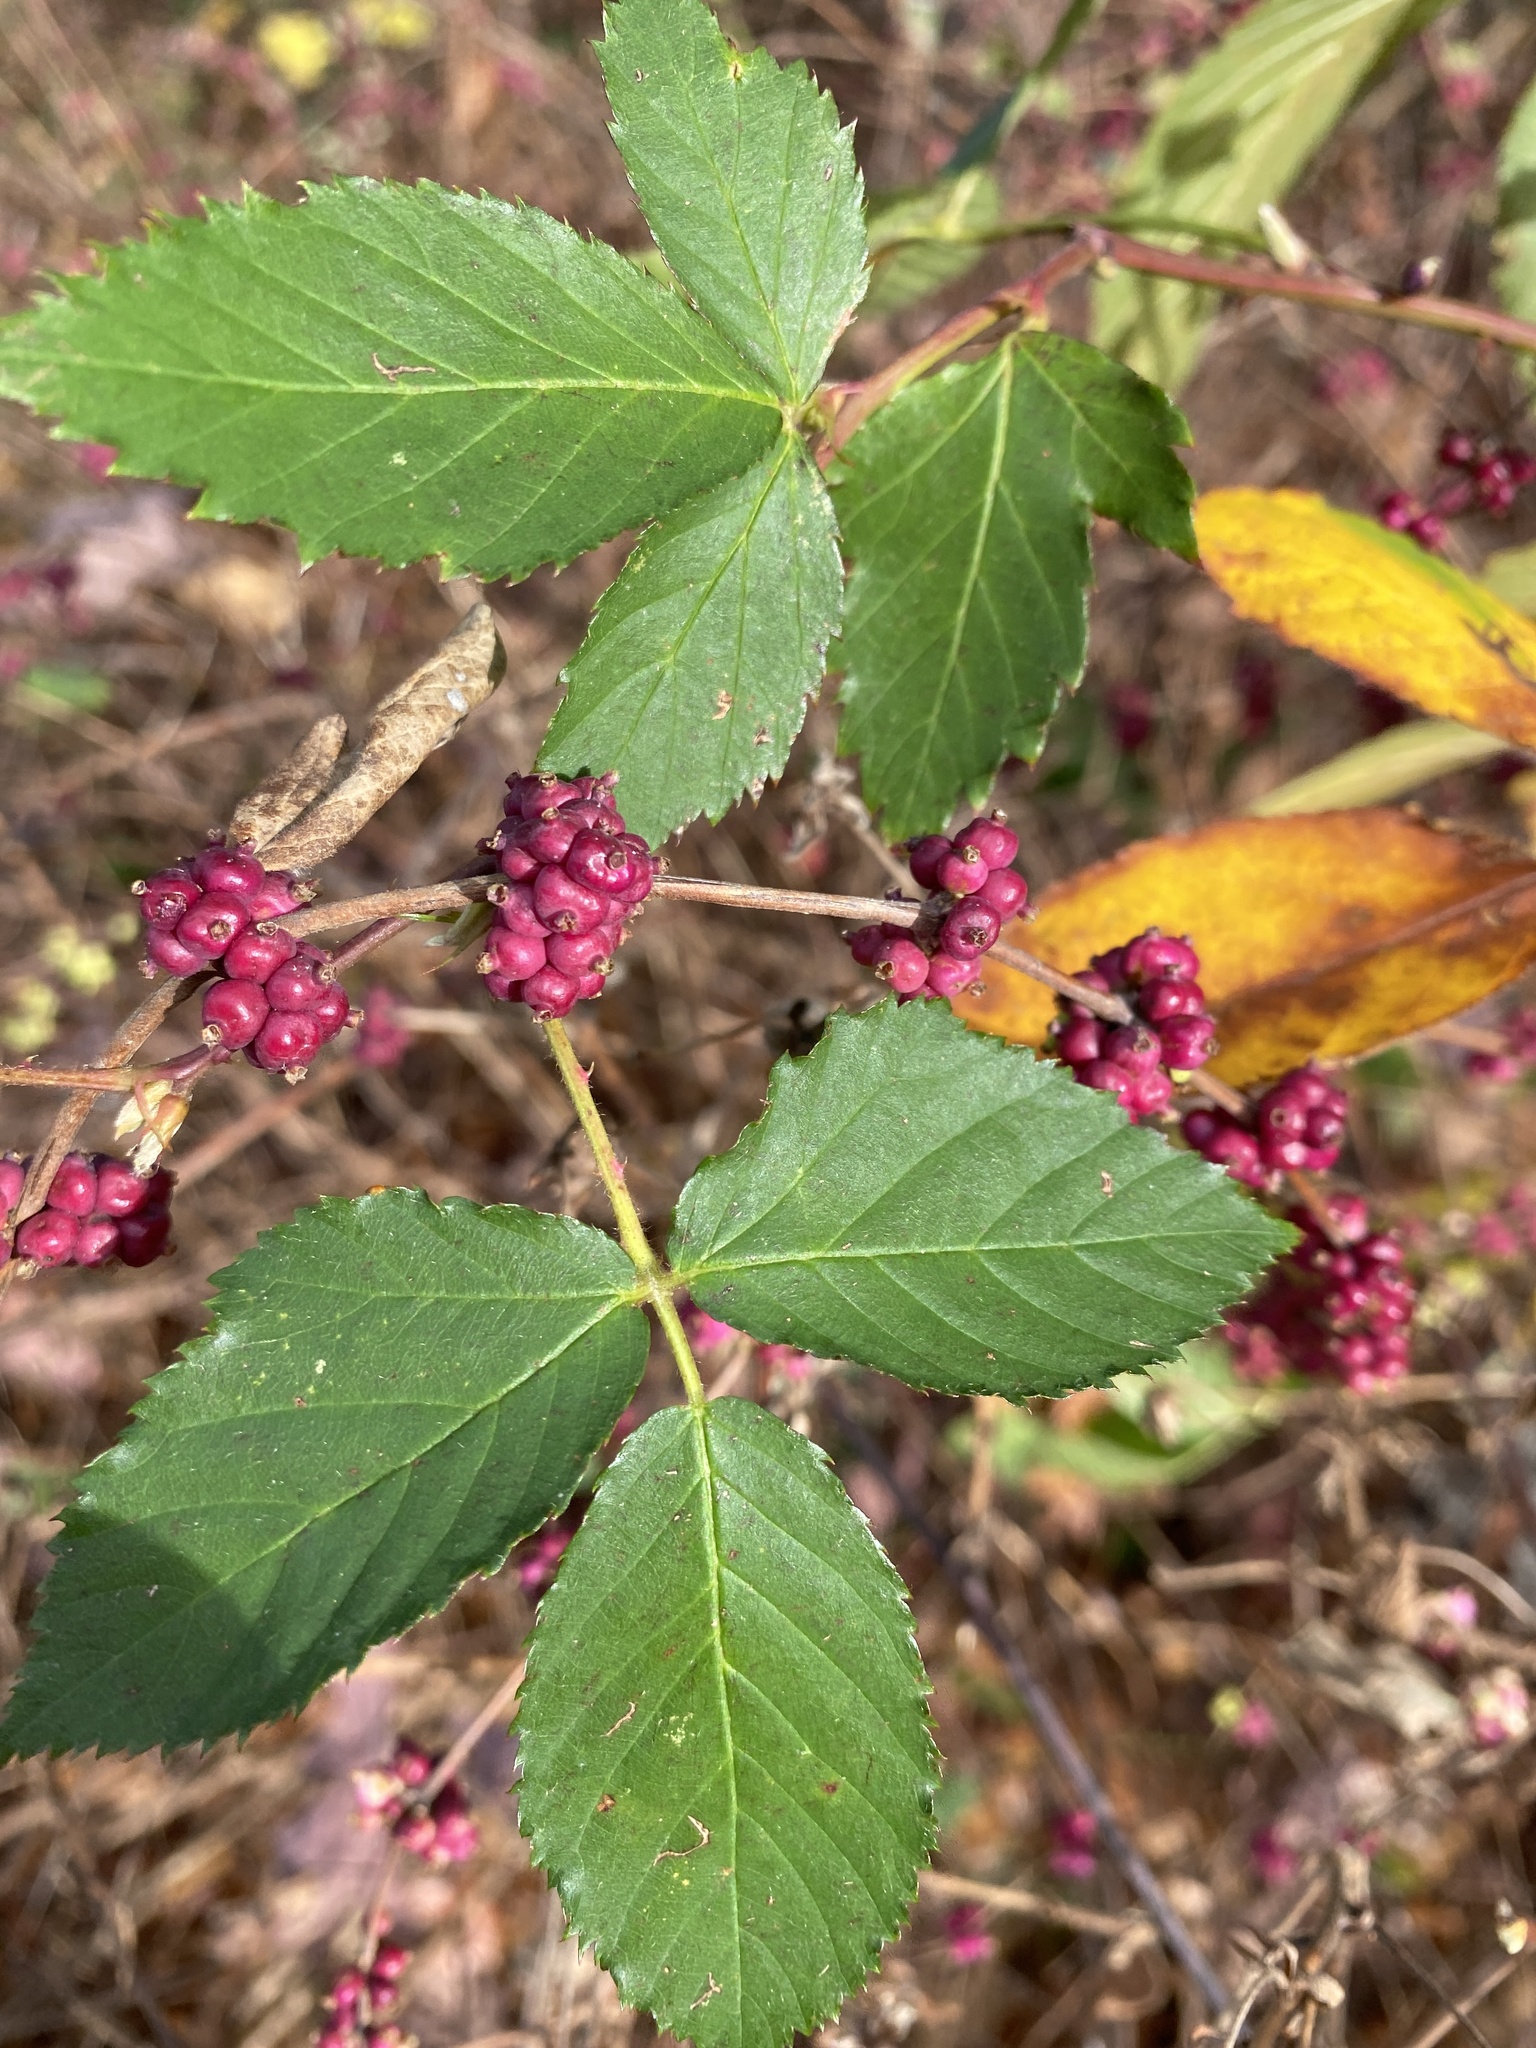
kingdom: Plantae
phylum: Tracheophyta
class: Magnoliopsida
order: Dipsacales
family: Caprifoliaceae
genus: Symphoricarpos
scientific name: Symphoricarpos orbiculatus
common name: Coralberry
